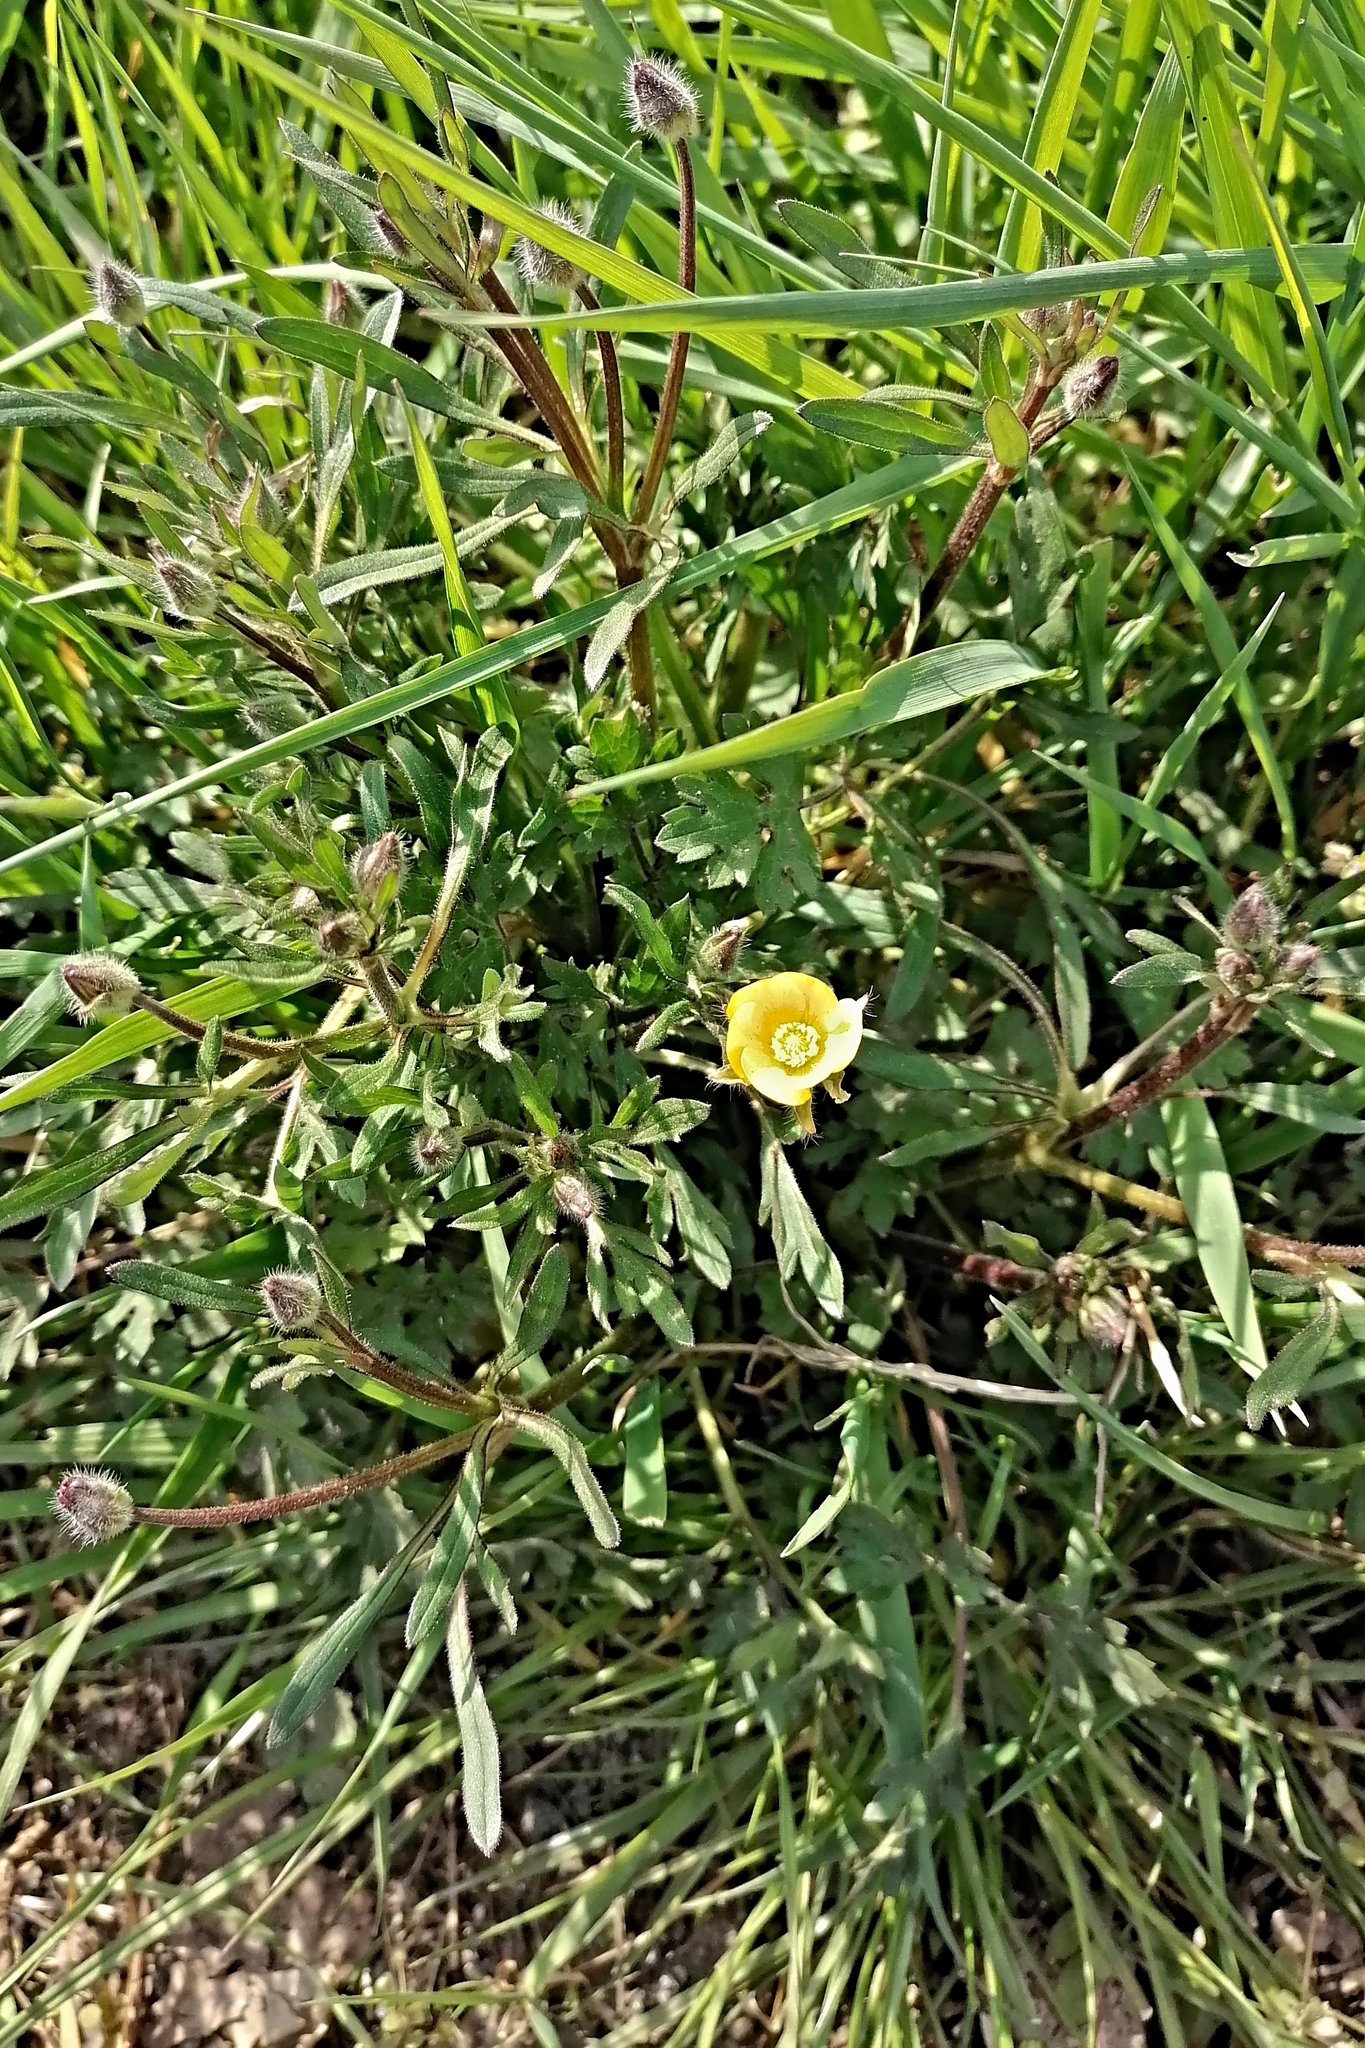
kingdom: Plantae
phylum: Tracheophyta
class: Magnoliopsida
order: Ranunculales
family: Ranunculaceae
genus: Ranunculus
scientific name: Ranunculus bulbosus
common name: Bulbous buttercup
